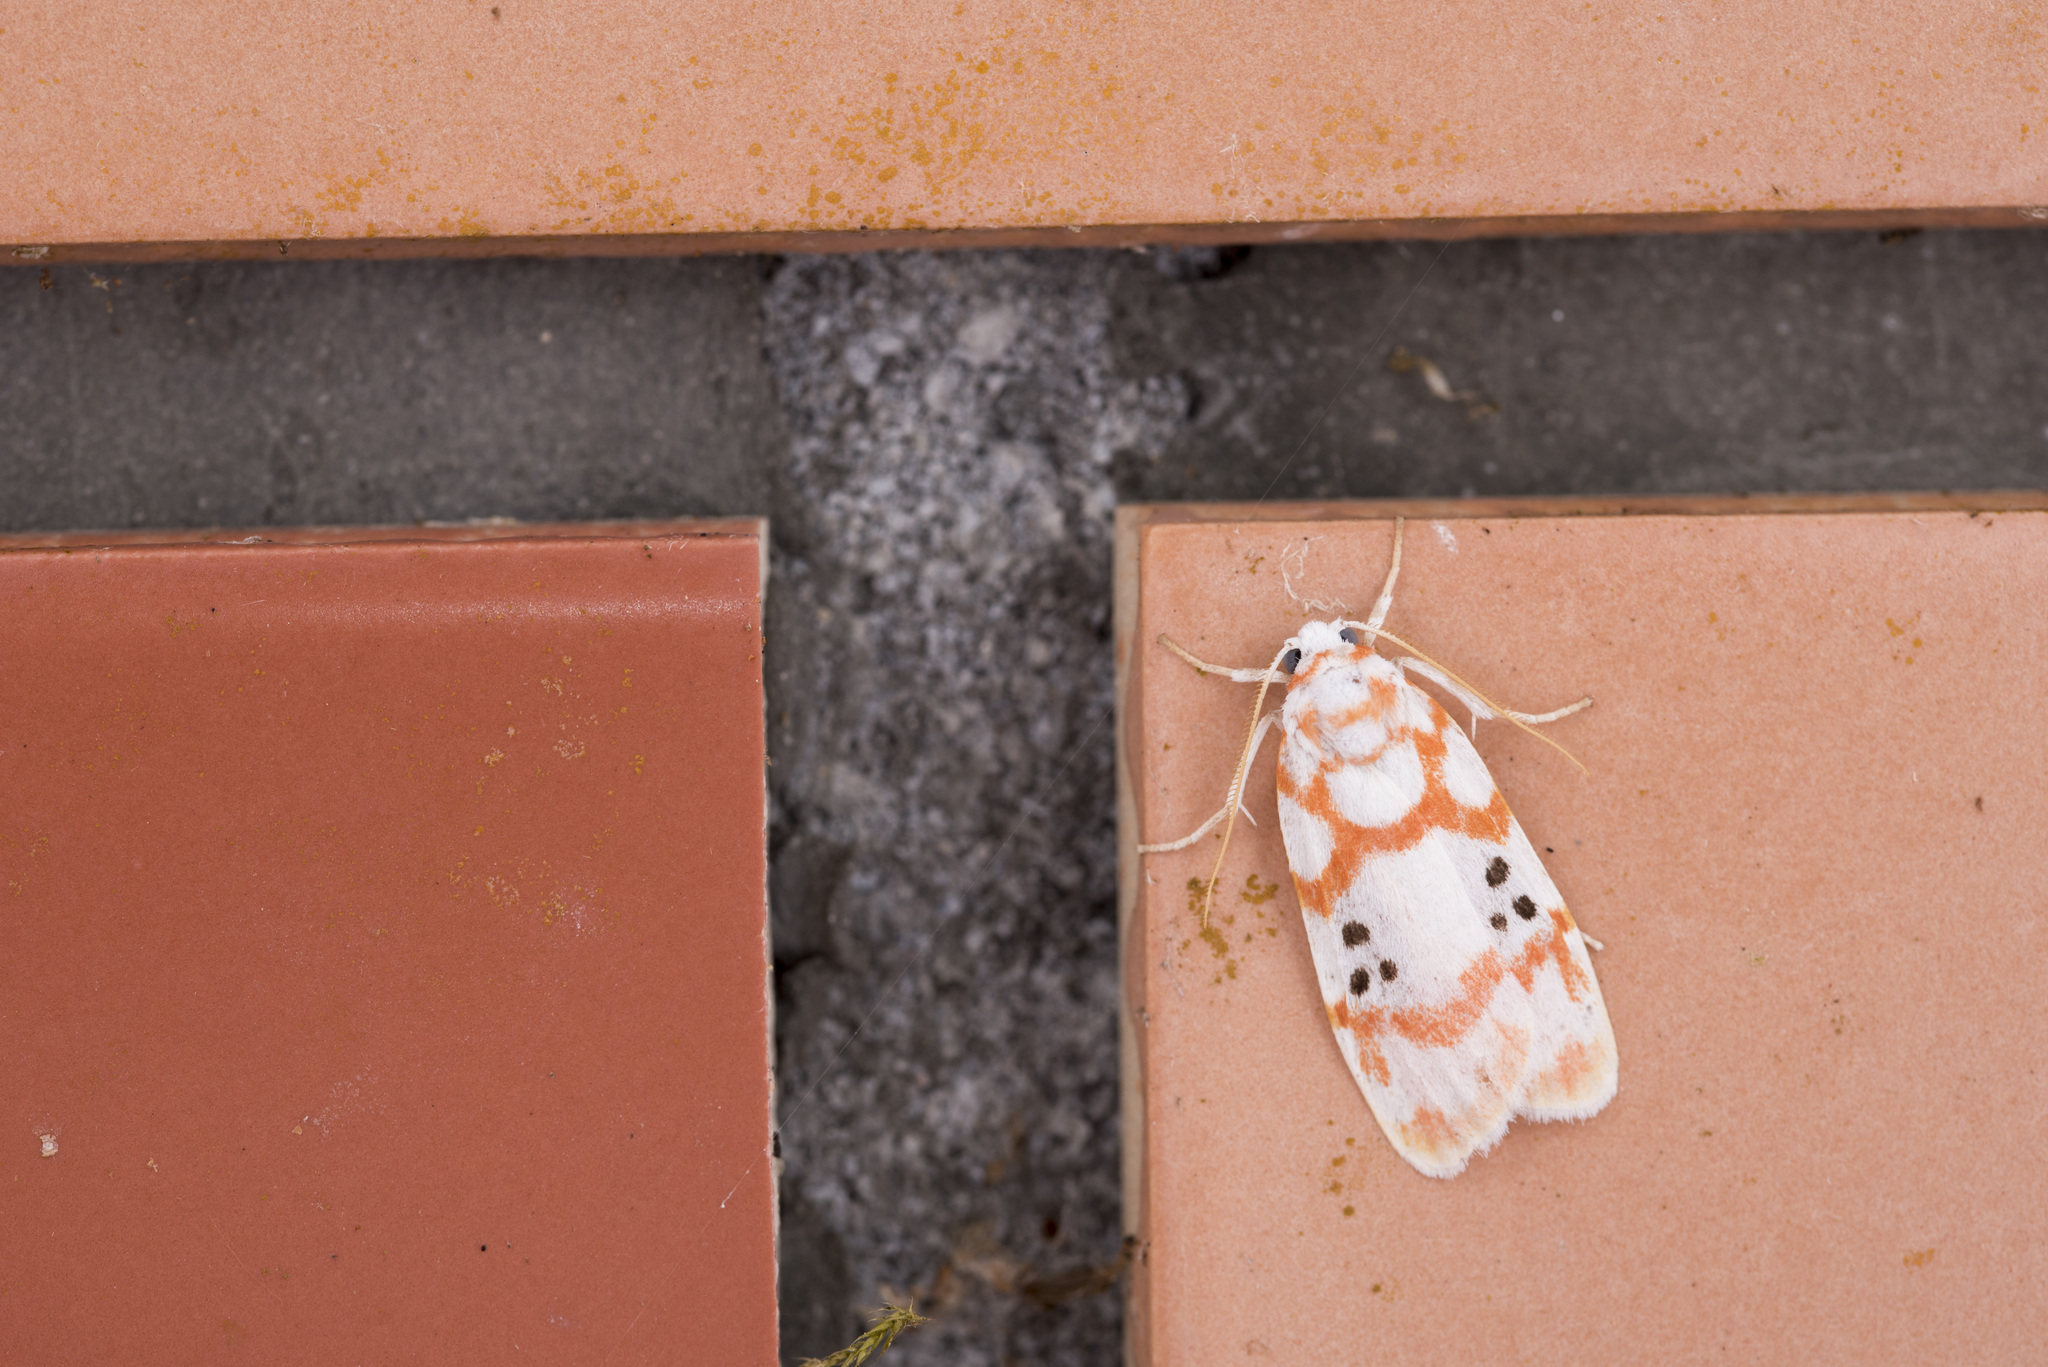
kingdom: Animalia
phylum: Arthropoda
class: Insecta
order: Lepidoptera
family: Erebidae
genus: Cyana
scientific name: Cyana formosana
